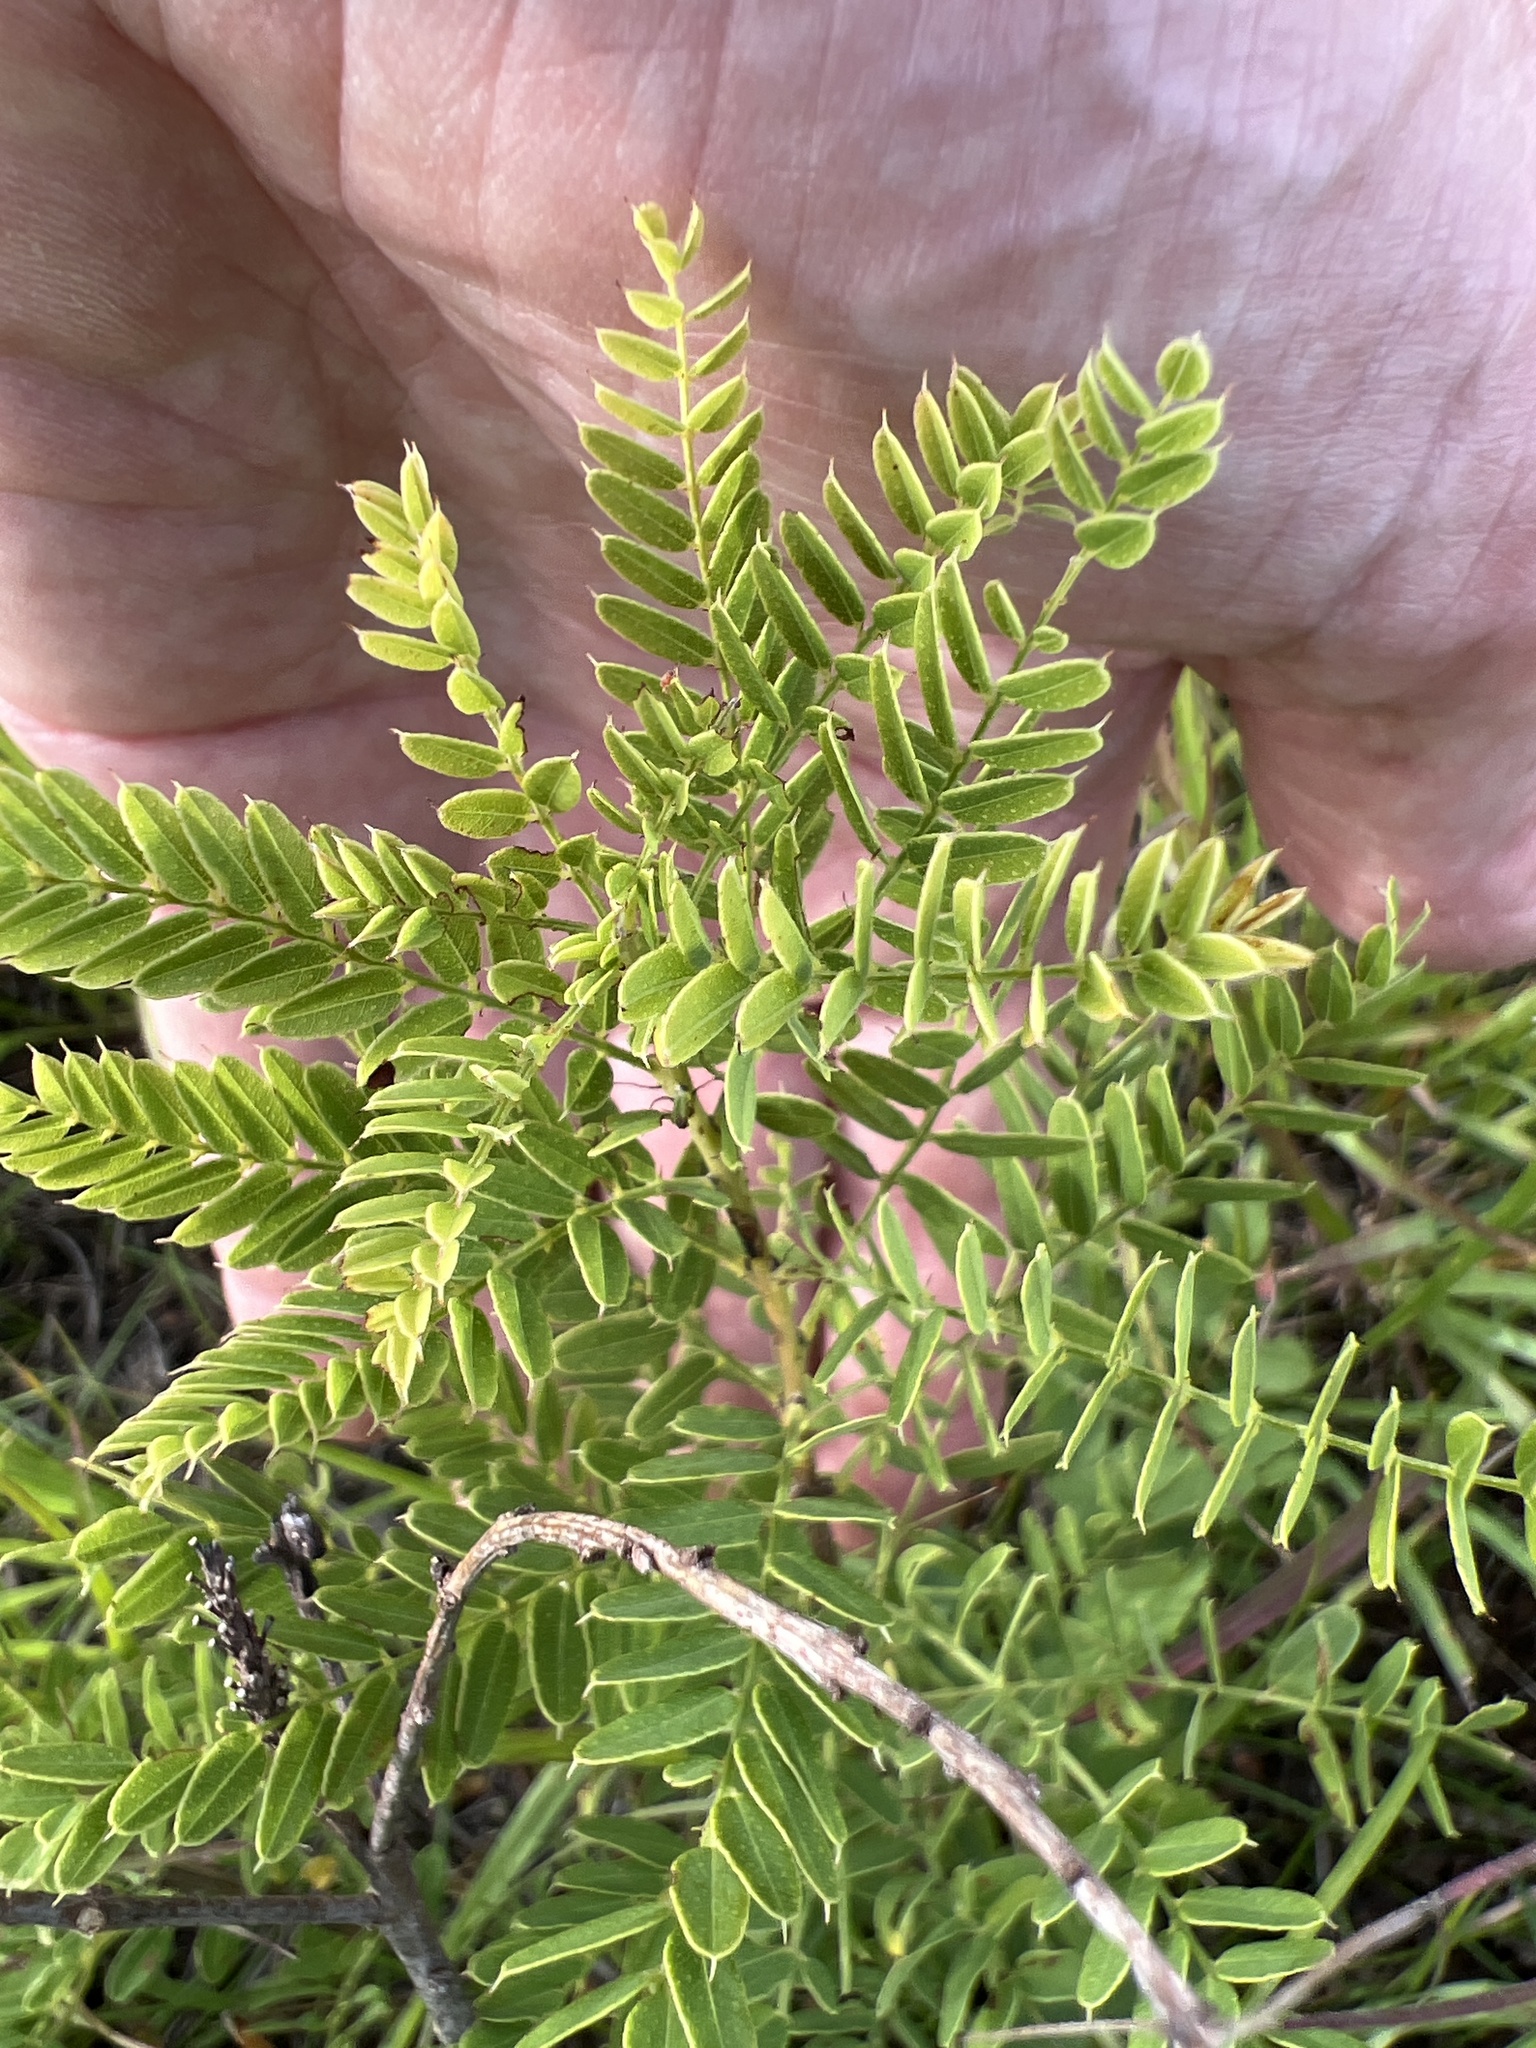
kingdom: Plantae
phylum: Tracheophyta
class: Magnoliopsida
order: Fabales
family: Fabaceae
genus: Amorpha
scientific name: Amorpha nana
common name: Fragrant false indigo
